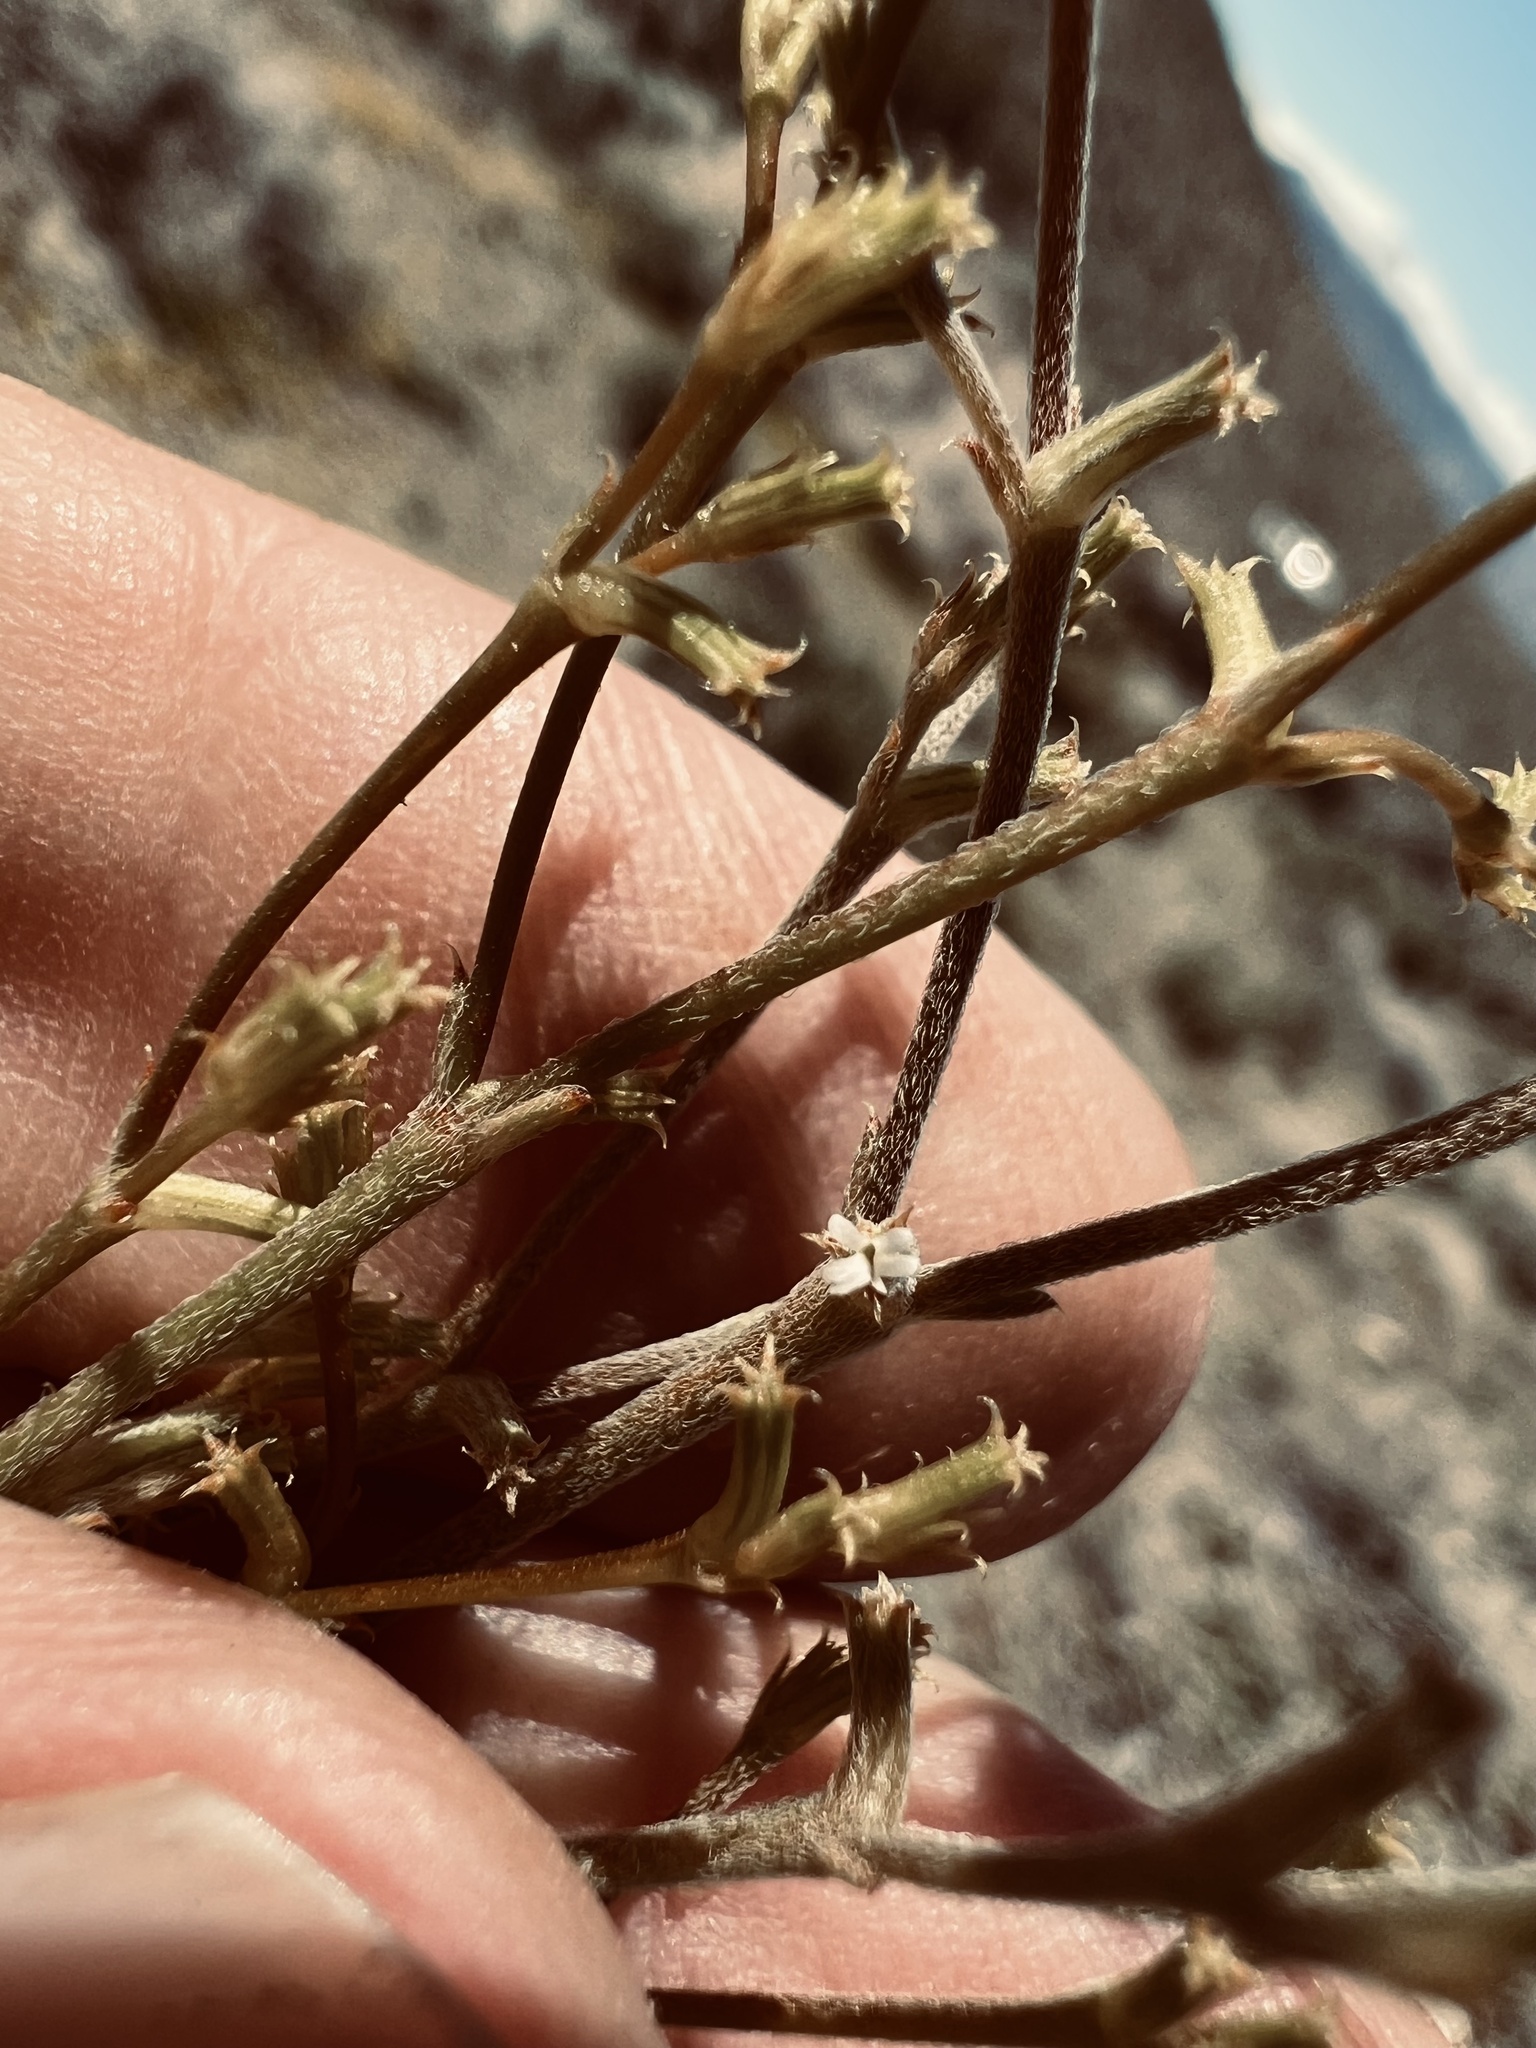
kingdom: Plantae
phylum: Tracheophyta
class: Magnoliopsida
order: Caryophyllales
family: Polygonaceae
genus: Chorizanthe
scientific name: Chorizanthe brevicornu
